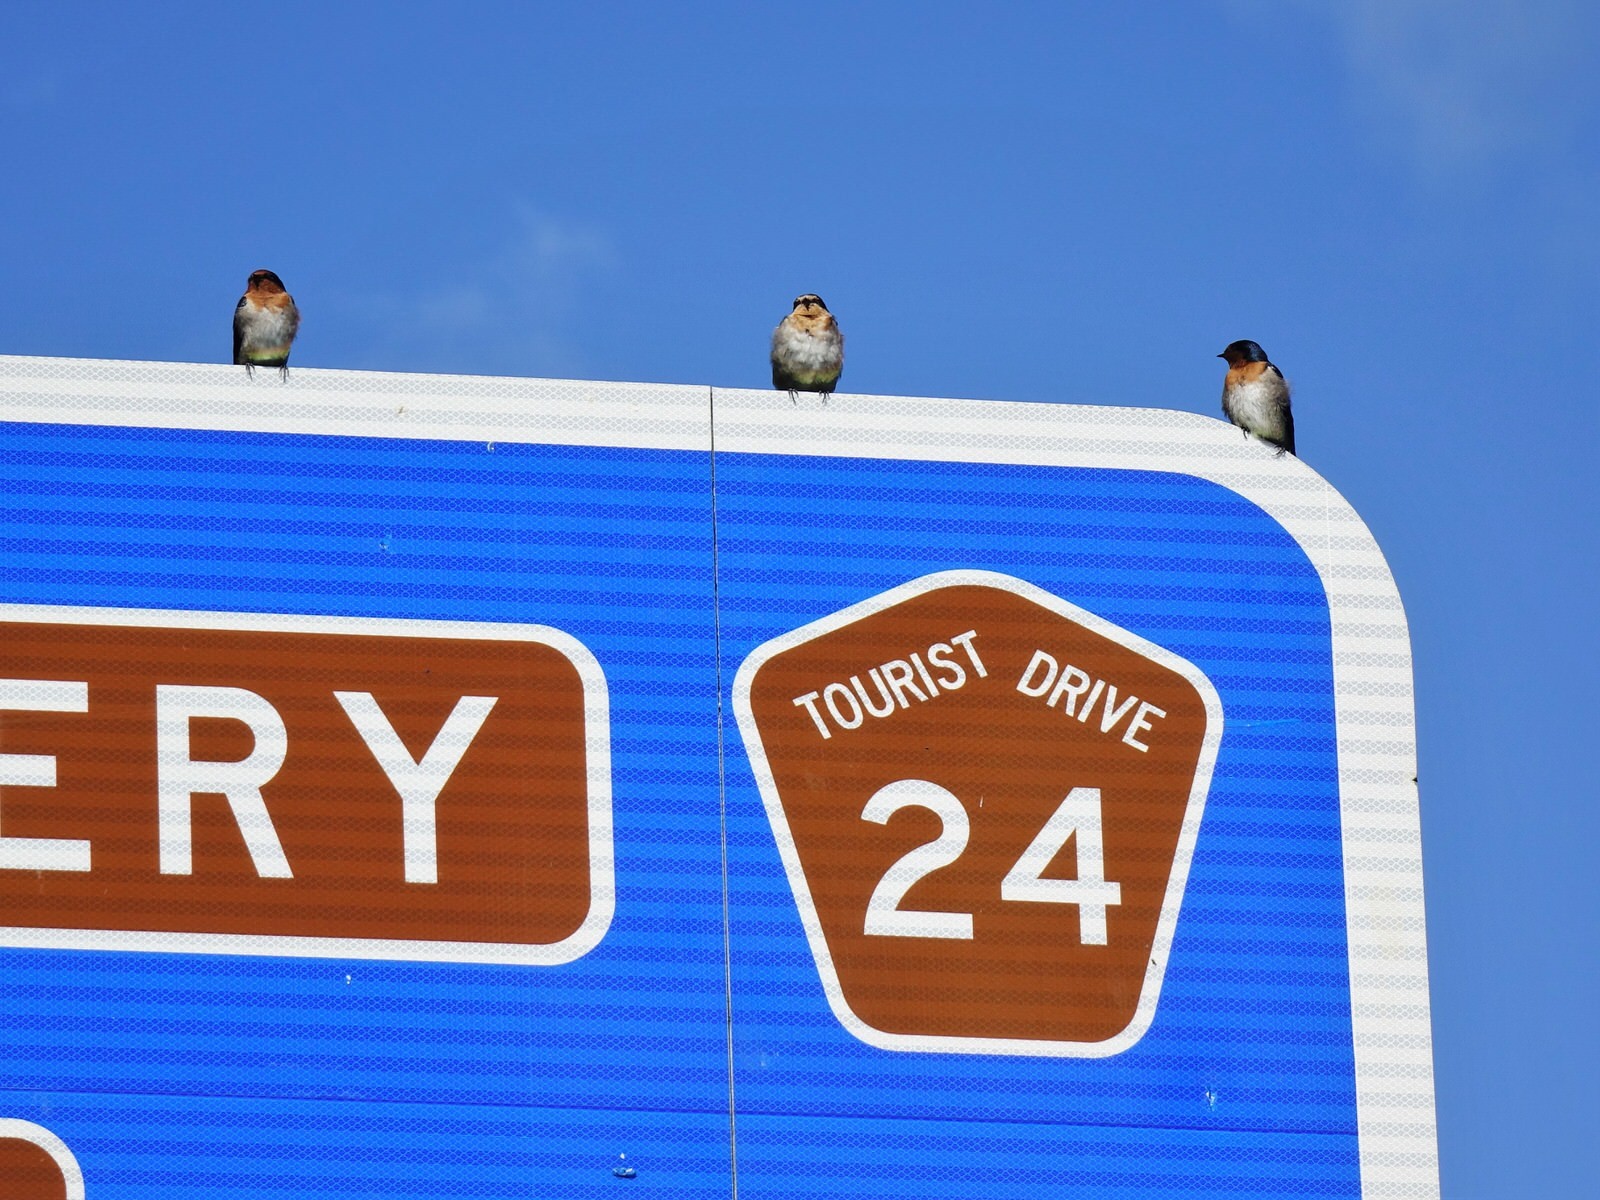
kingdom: Animalia
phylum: Chordata
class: Aves
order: Passeriformes
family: Hirundinidae
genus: Hirundo
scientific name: Hirundo neoxena
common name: Welcome swallow
